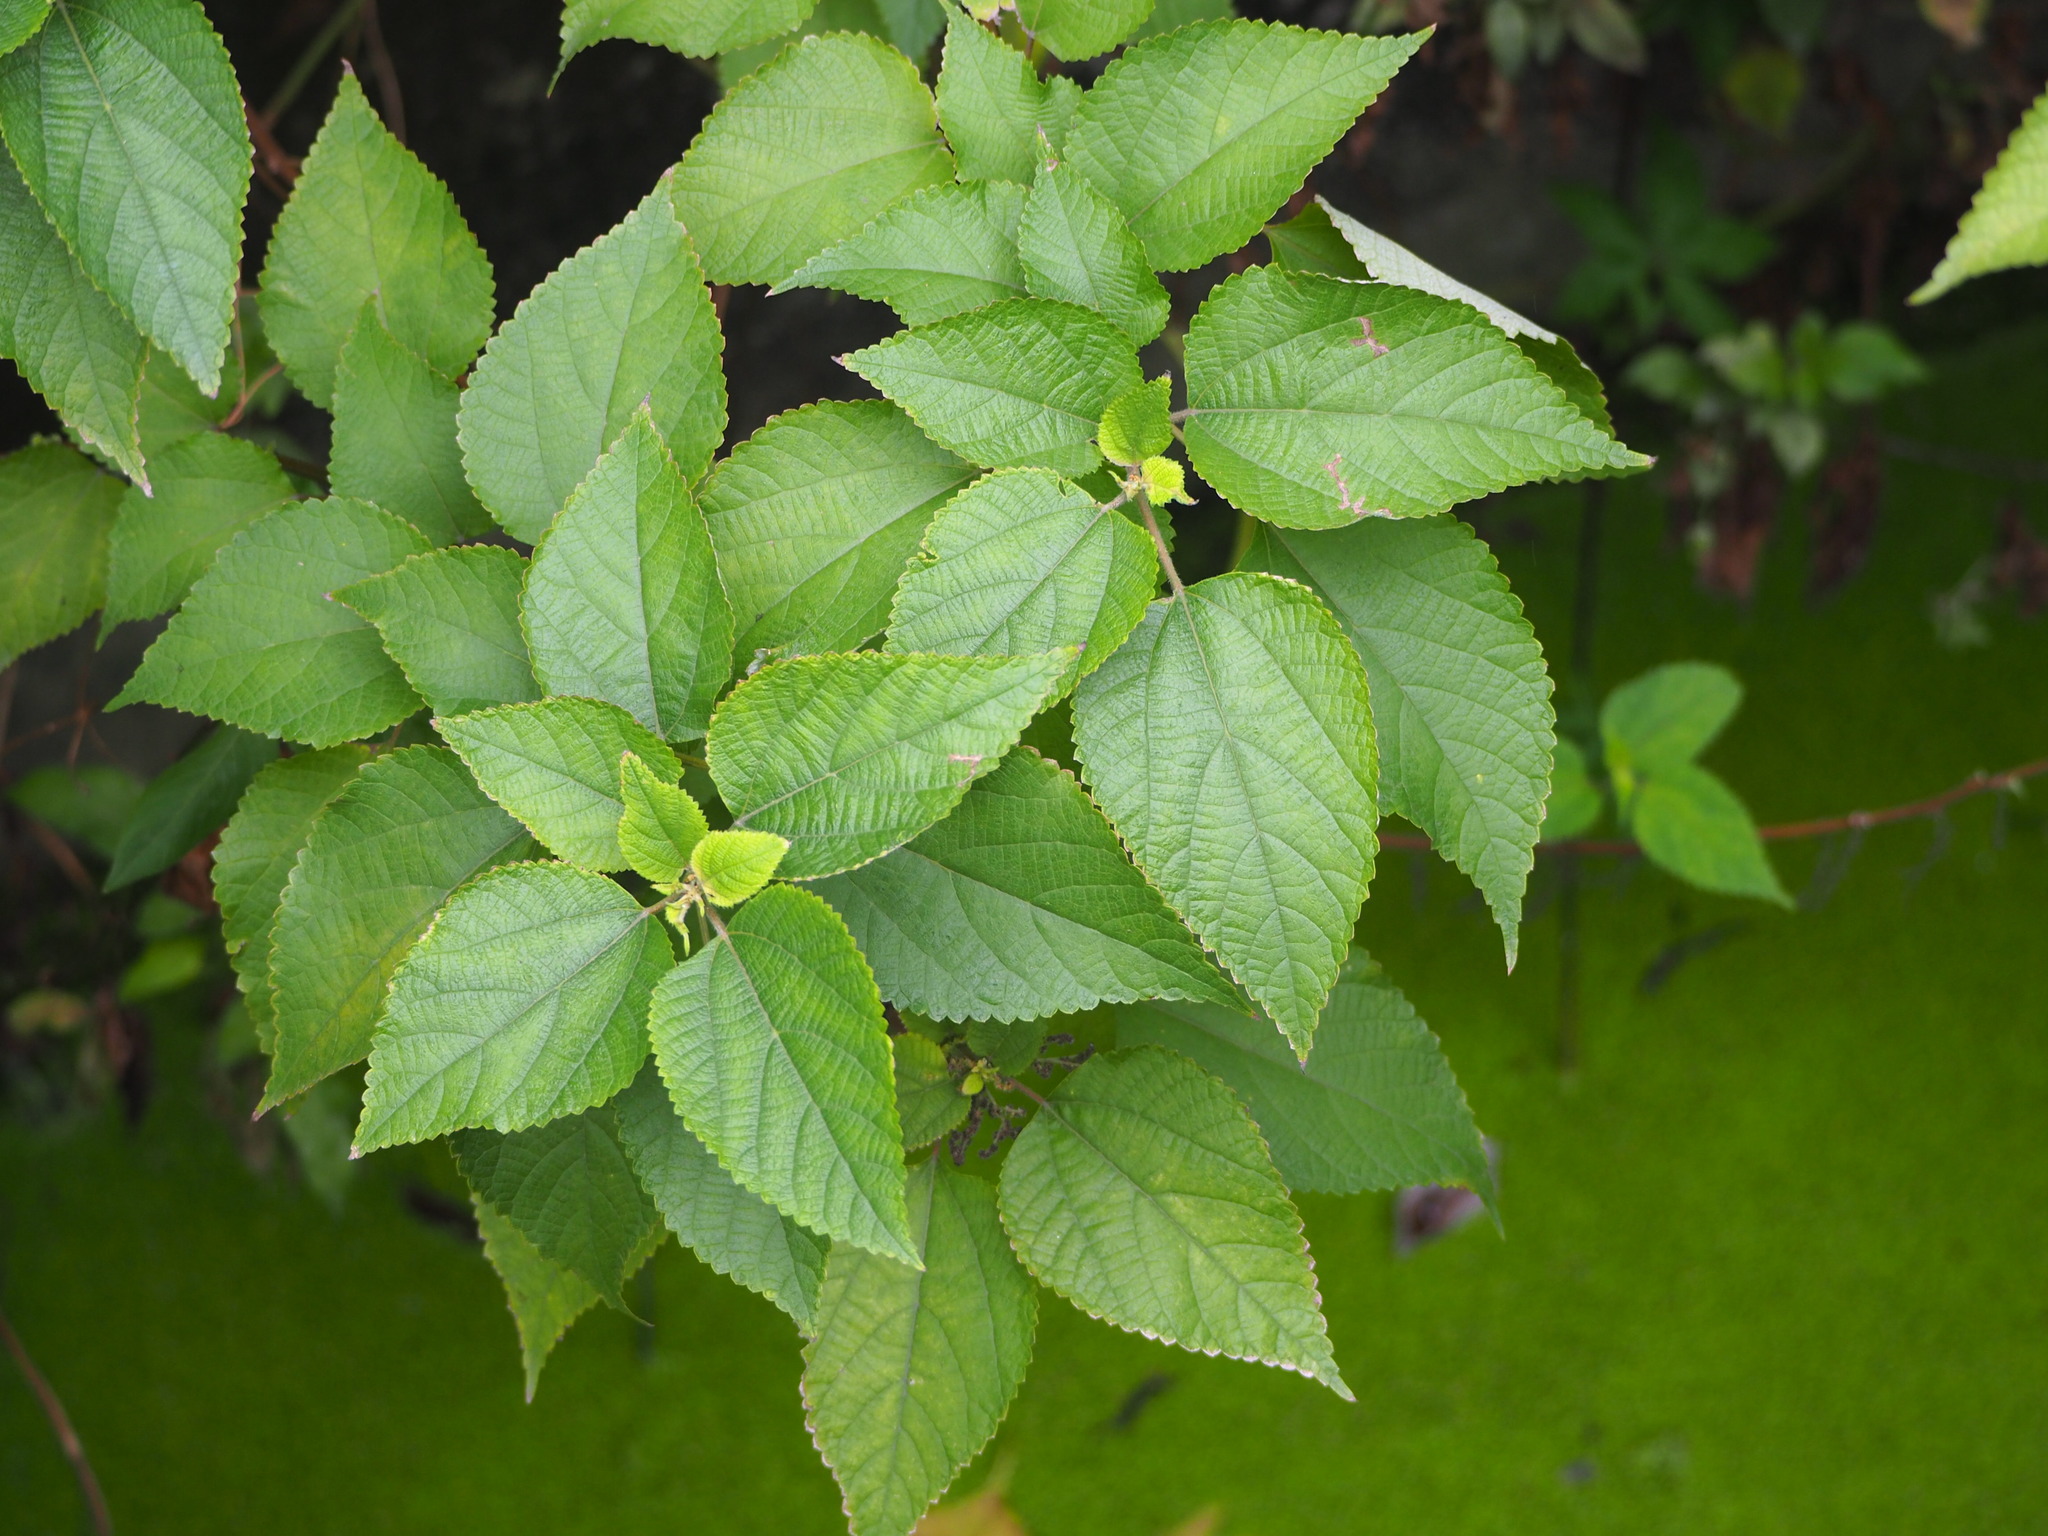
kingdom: Plantae
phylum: Tracheophyta
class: Magnoliopsida
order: Rosales
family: Urticaceae
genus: Boehmeria
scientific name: Boehmeria nivea
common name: Ramie chinese grass
